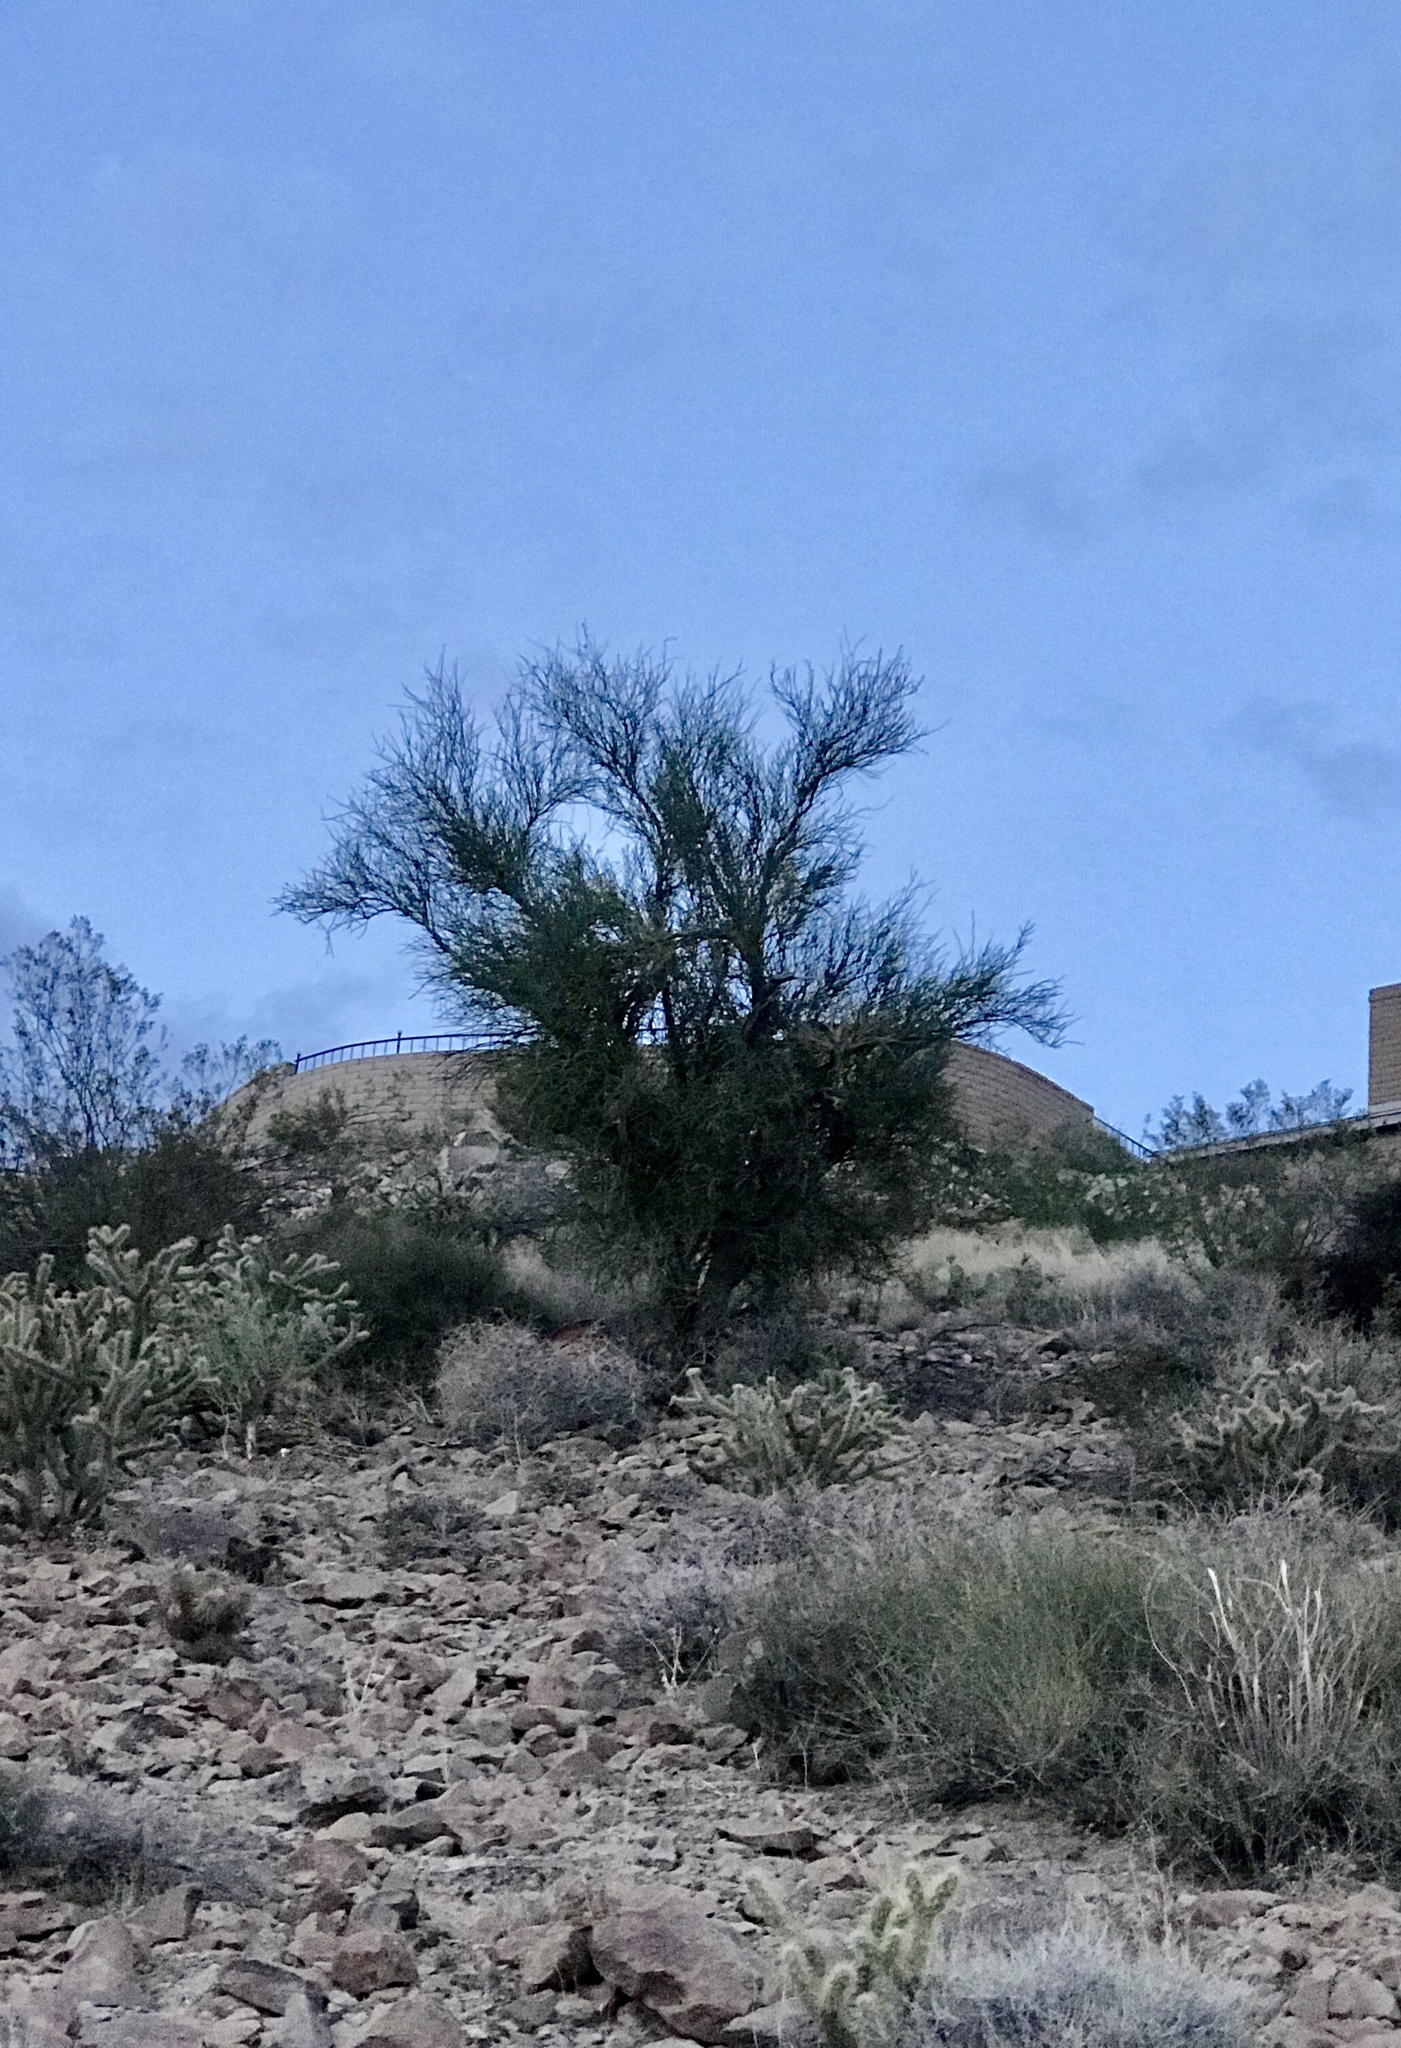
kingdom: Plantae
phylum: Tracheophyta
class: Magnoliopsida
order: Celastrales
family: Celastraceae
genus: Canotia
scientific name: Canotia holacantha
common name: Crucifixion thorns
